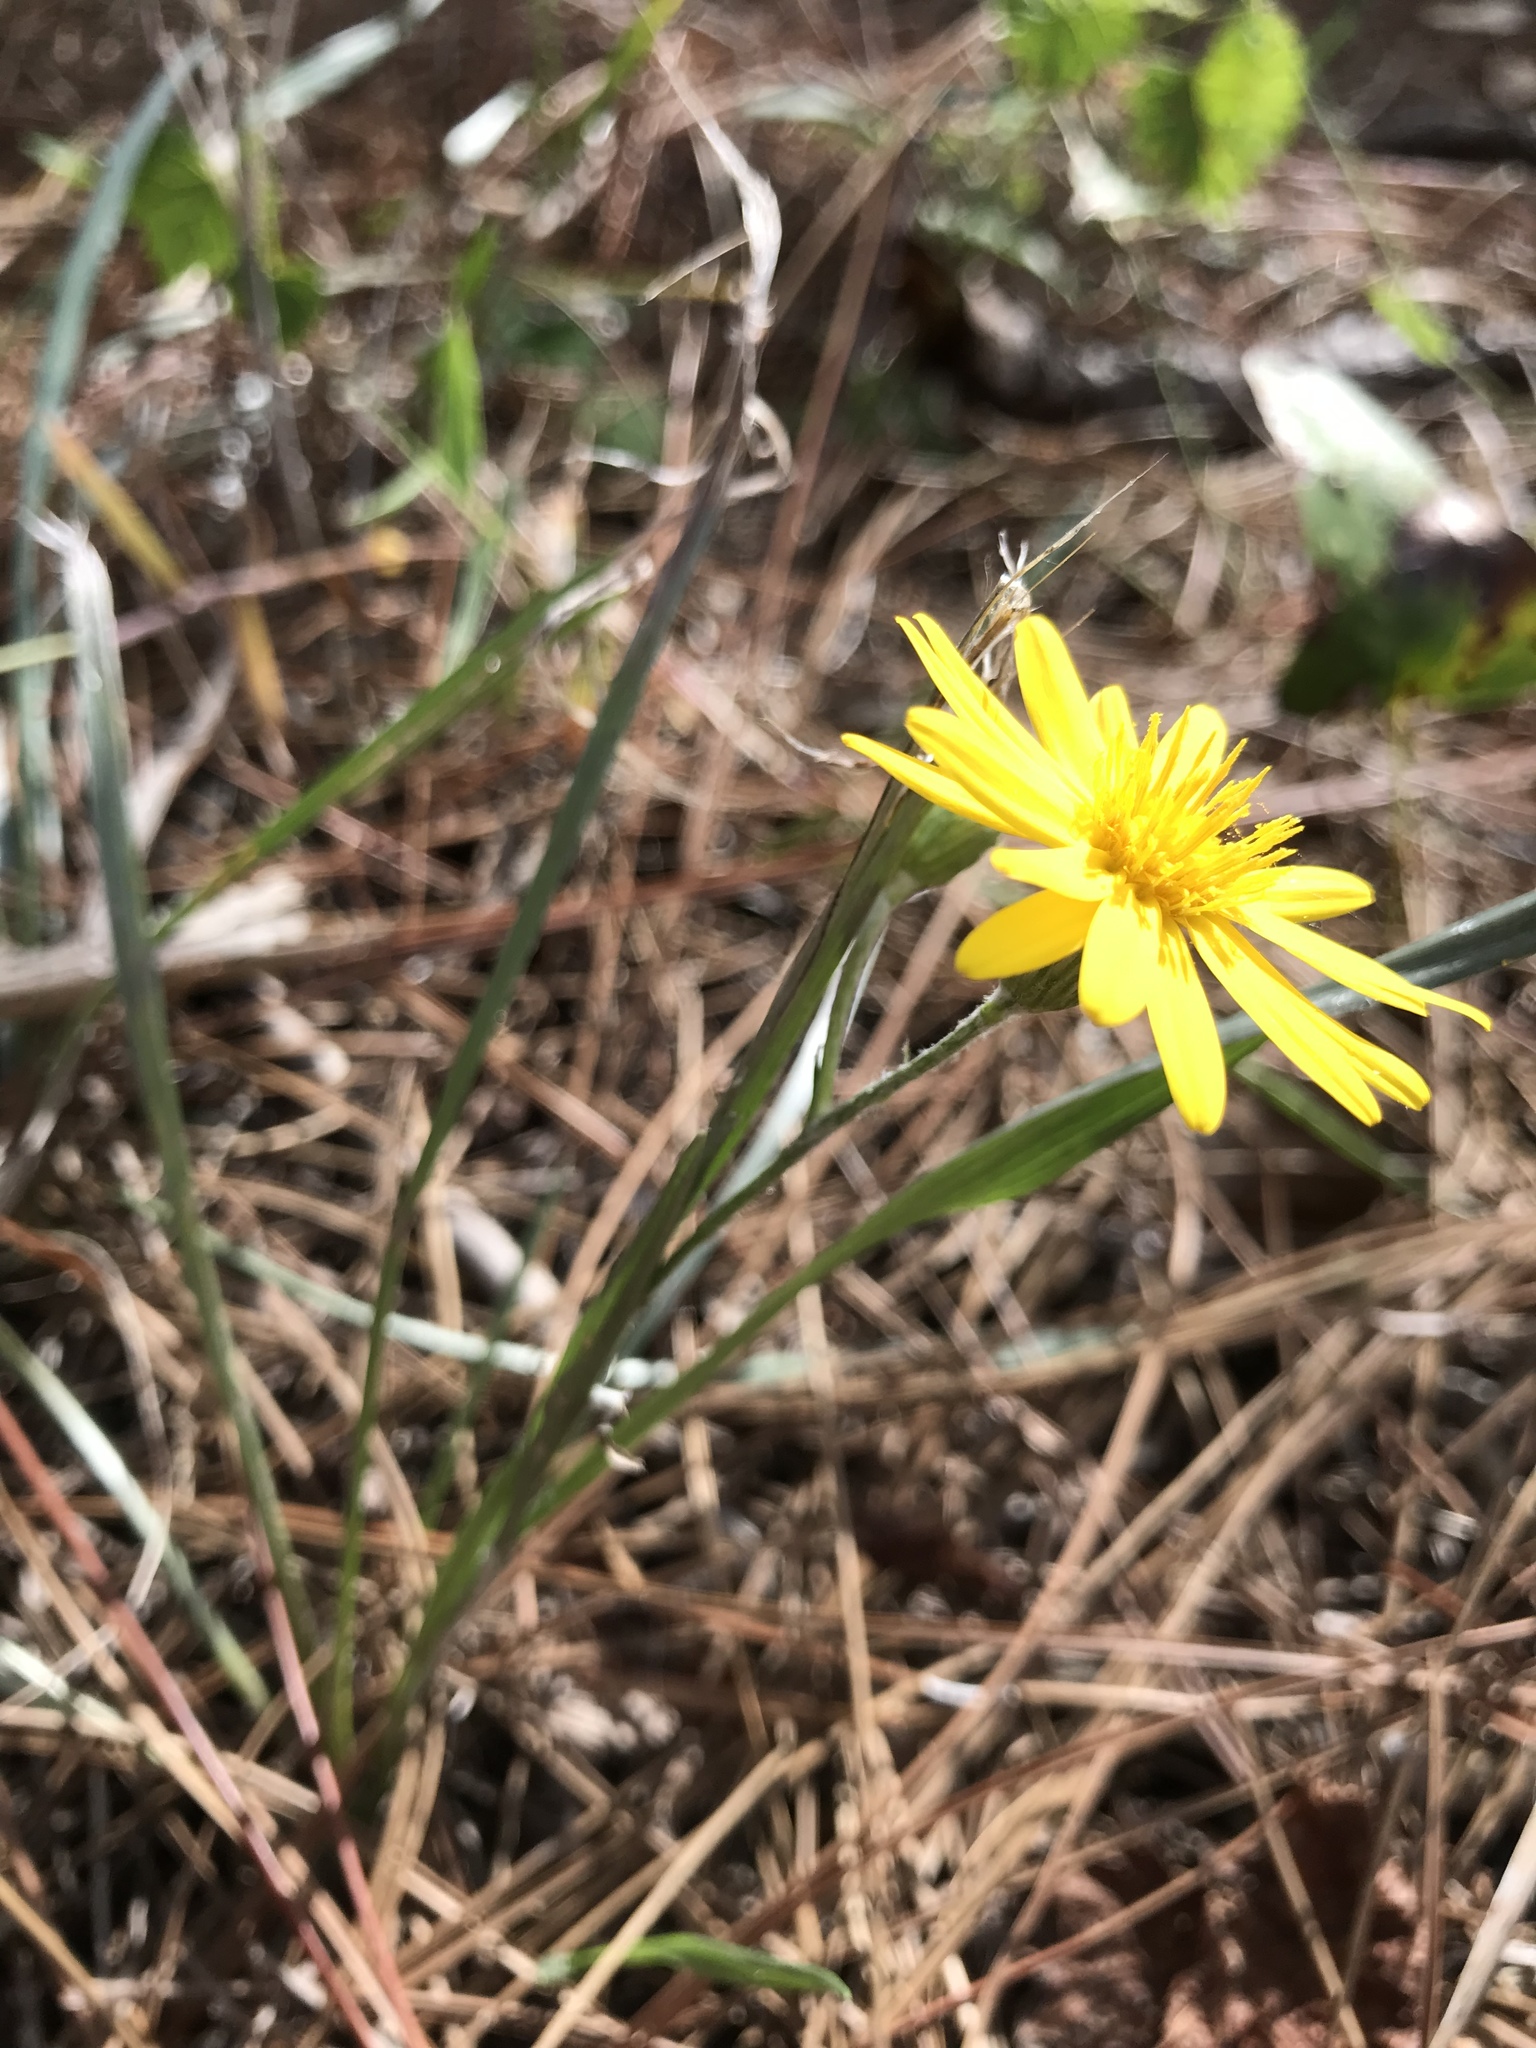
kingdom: Plantae
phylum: Tracheophyta
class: Magnoliopsida
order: Asterales
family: Asteraceae
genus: Pityopsis
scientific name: Pityopsis graminifolia
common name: Grass-leaf golden-aster
